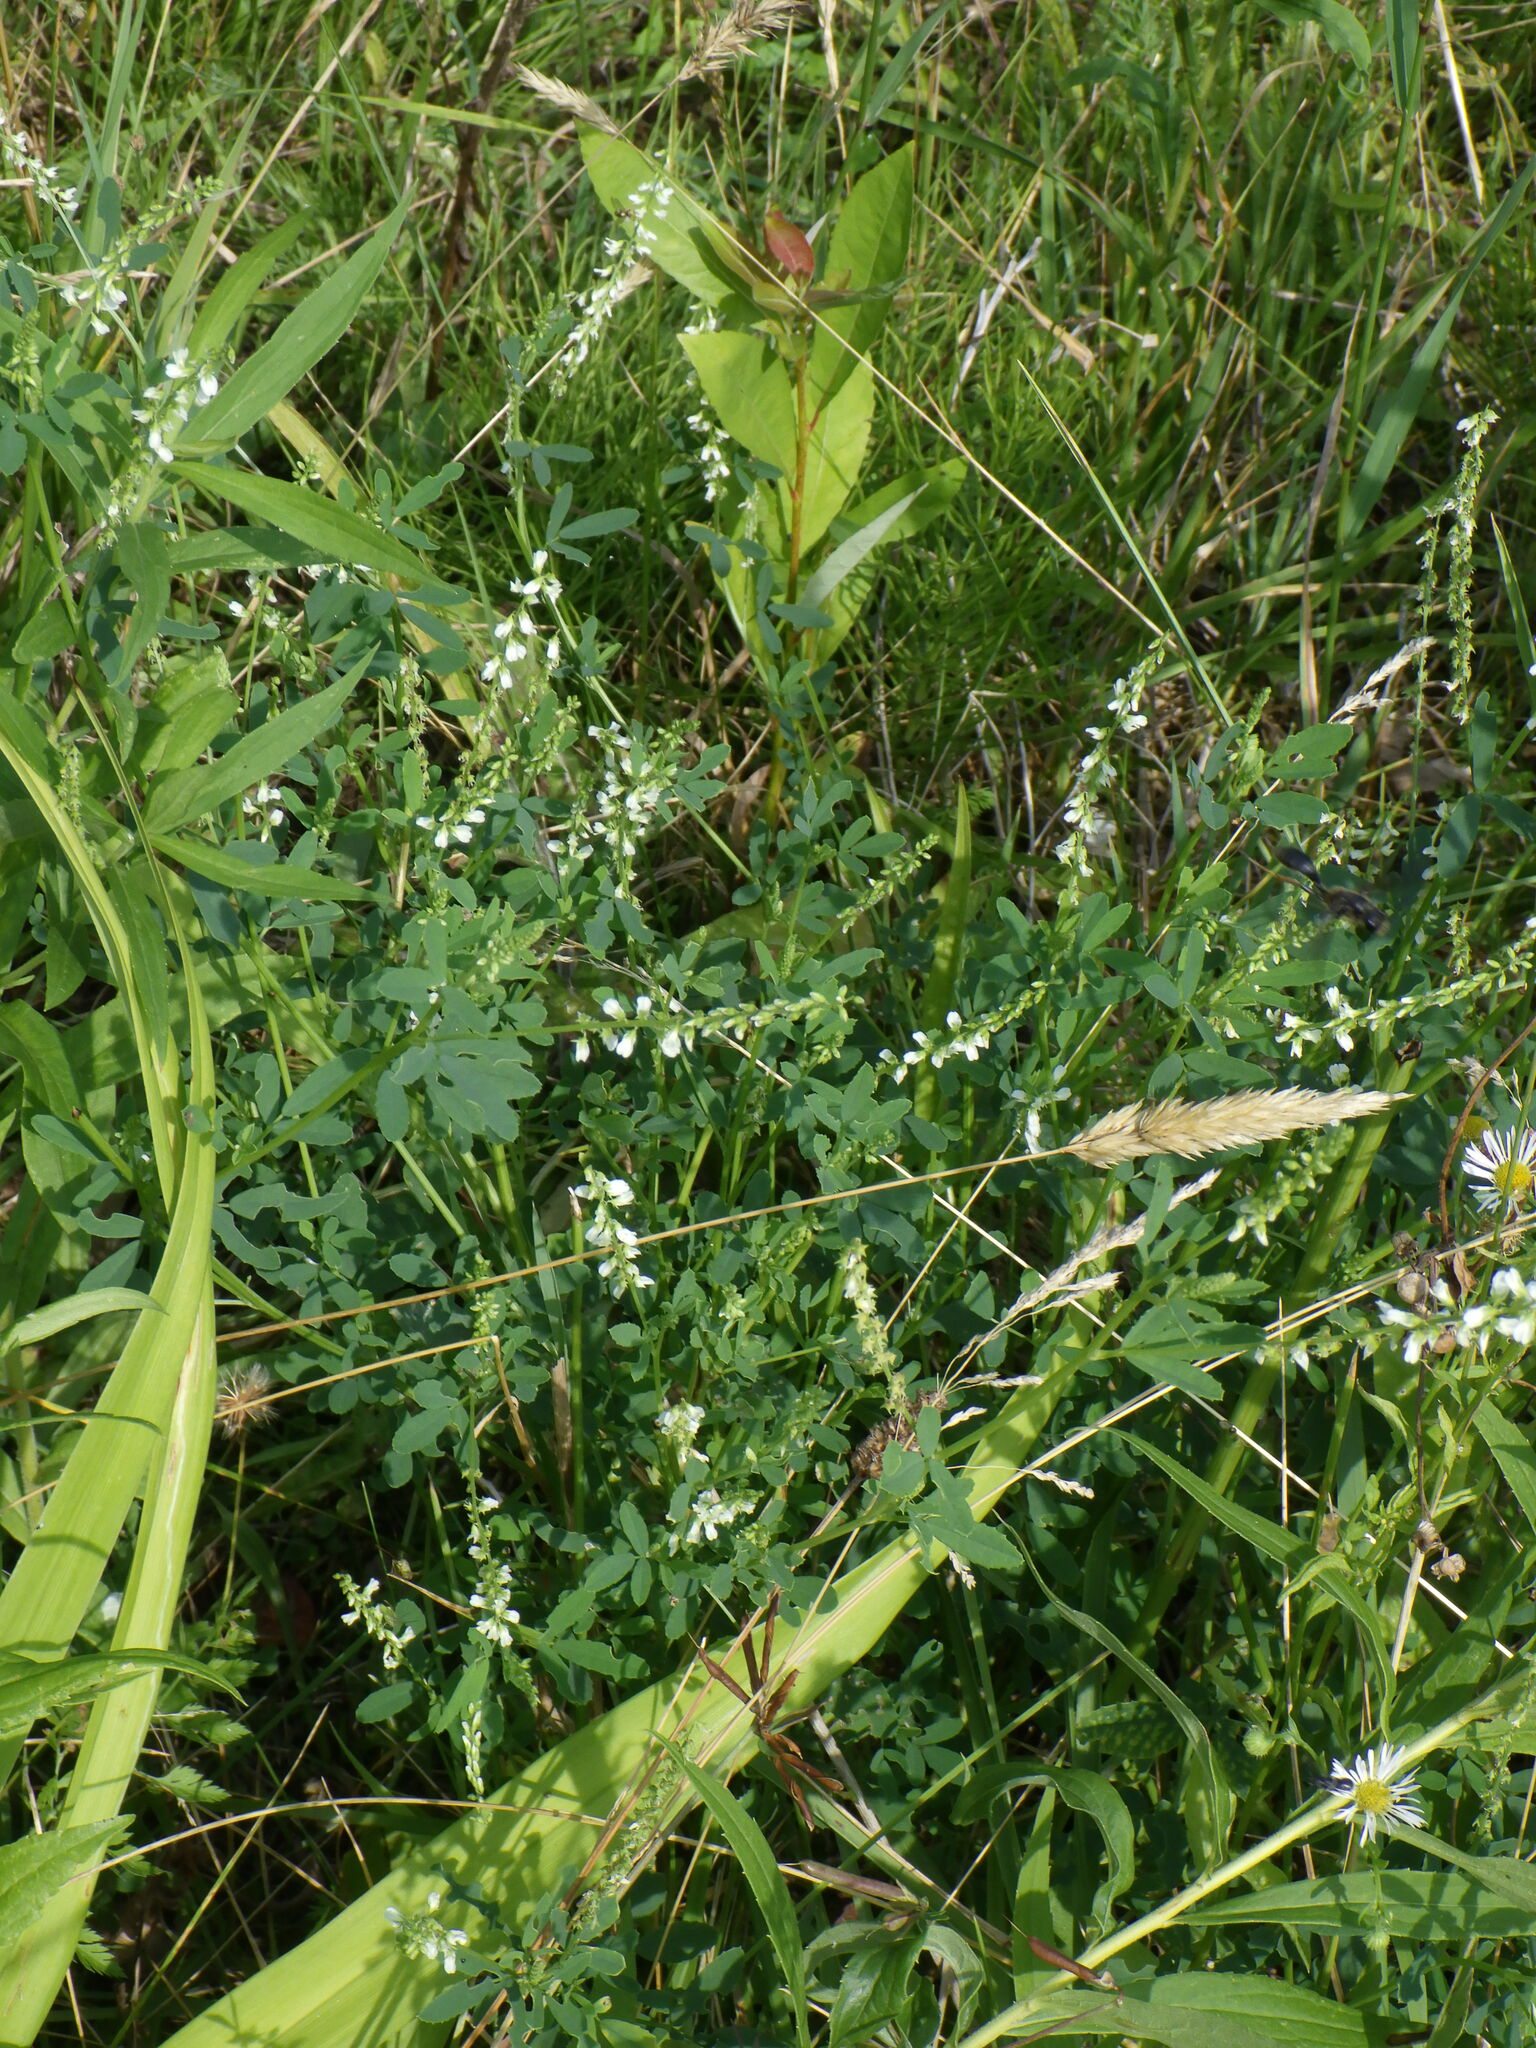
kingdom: Plantae
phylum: Tracheophyta
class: Magnoliopsida
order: Fabales
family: Fabaceae
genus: Melilotus
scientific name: Melilotus albus
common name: White melilot
